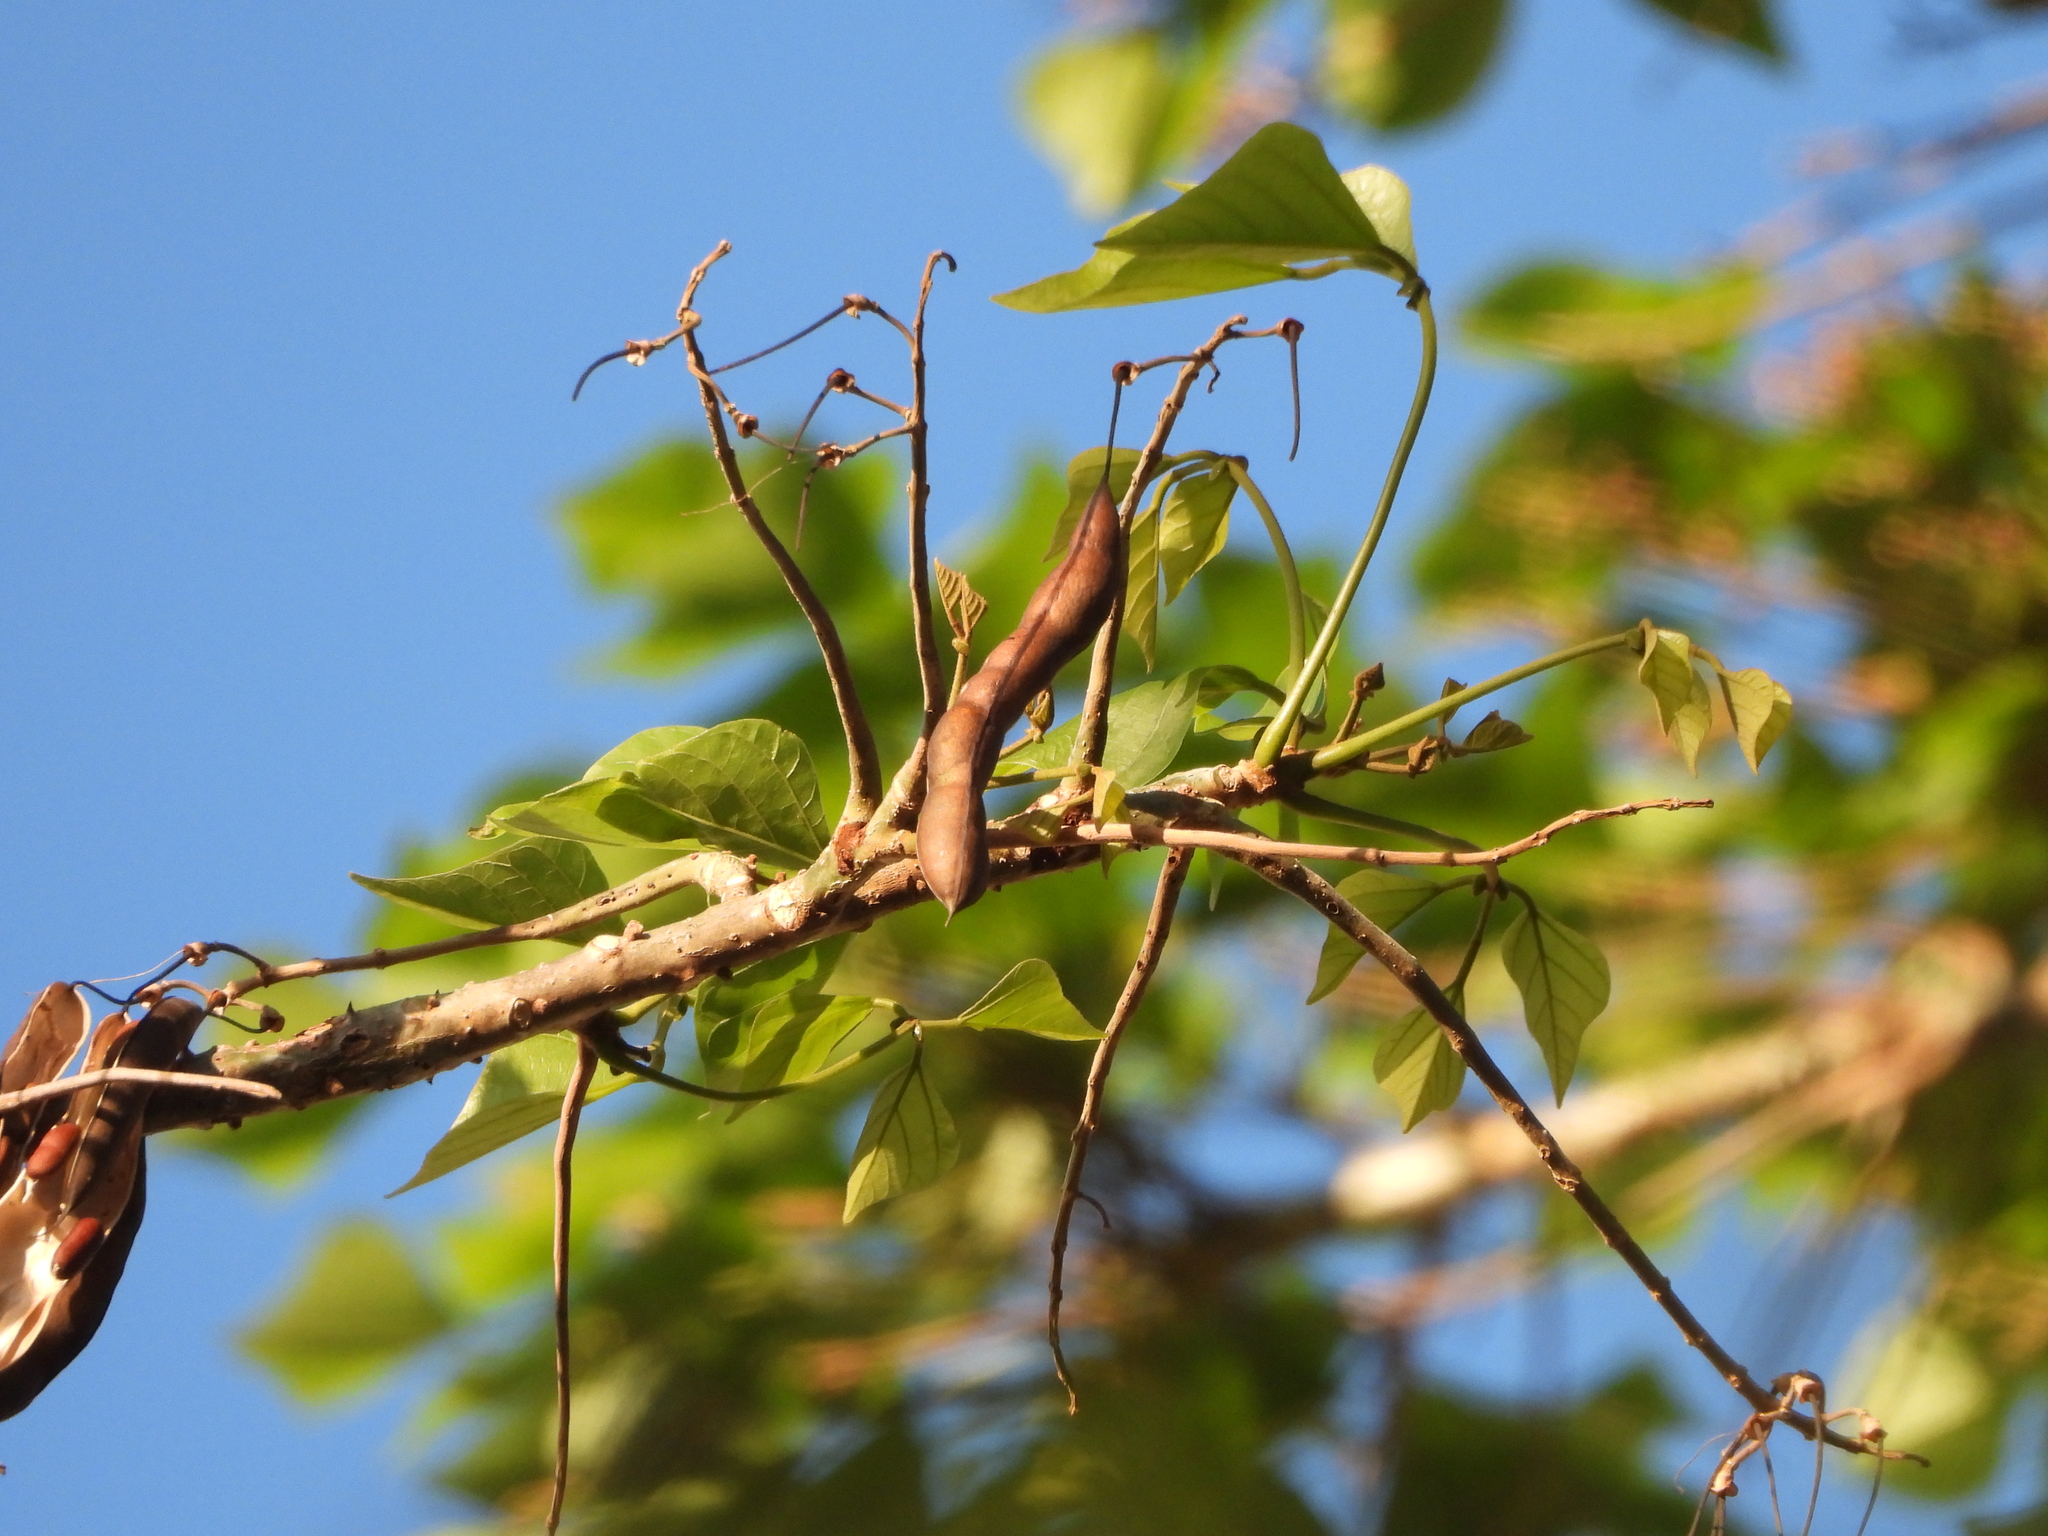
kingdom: Plantae
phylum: Tracheophyta
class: Magnoliopsida
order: Fabales
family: Fabaceae
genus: Erythrina
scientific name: Erythrina poeppigiana
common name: Coral tree
